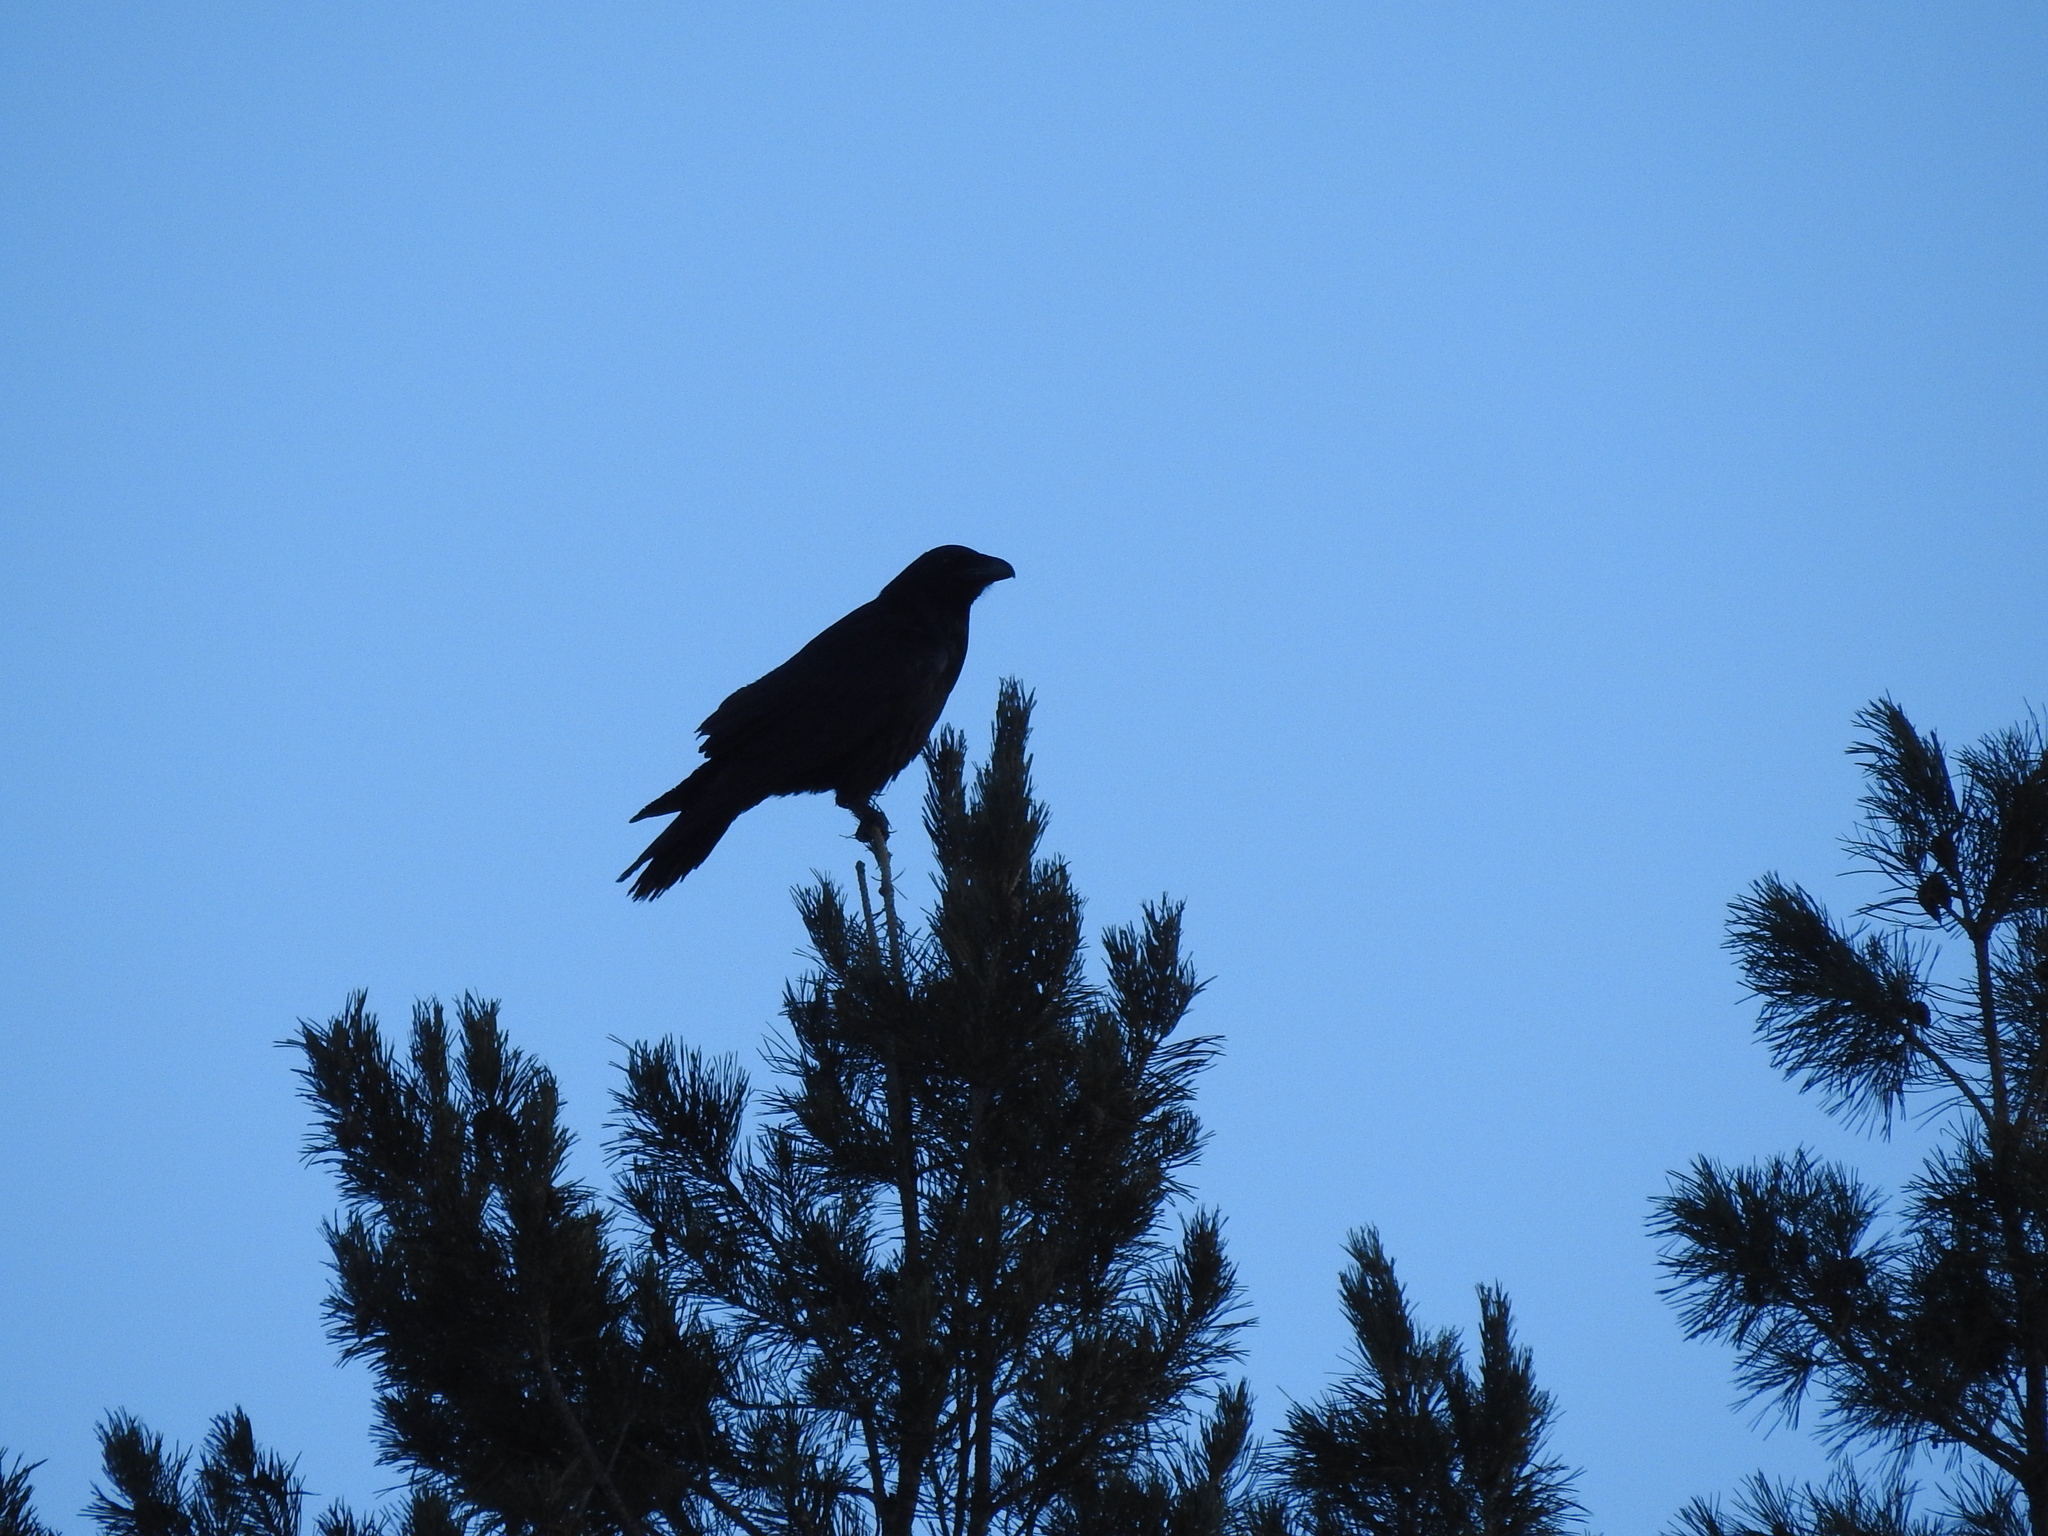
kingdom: Animalia
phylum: Chordata
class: Aves
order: Passeriformes
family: Corvidae
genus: Corvus
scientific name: Corvus corax
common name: Common raven
